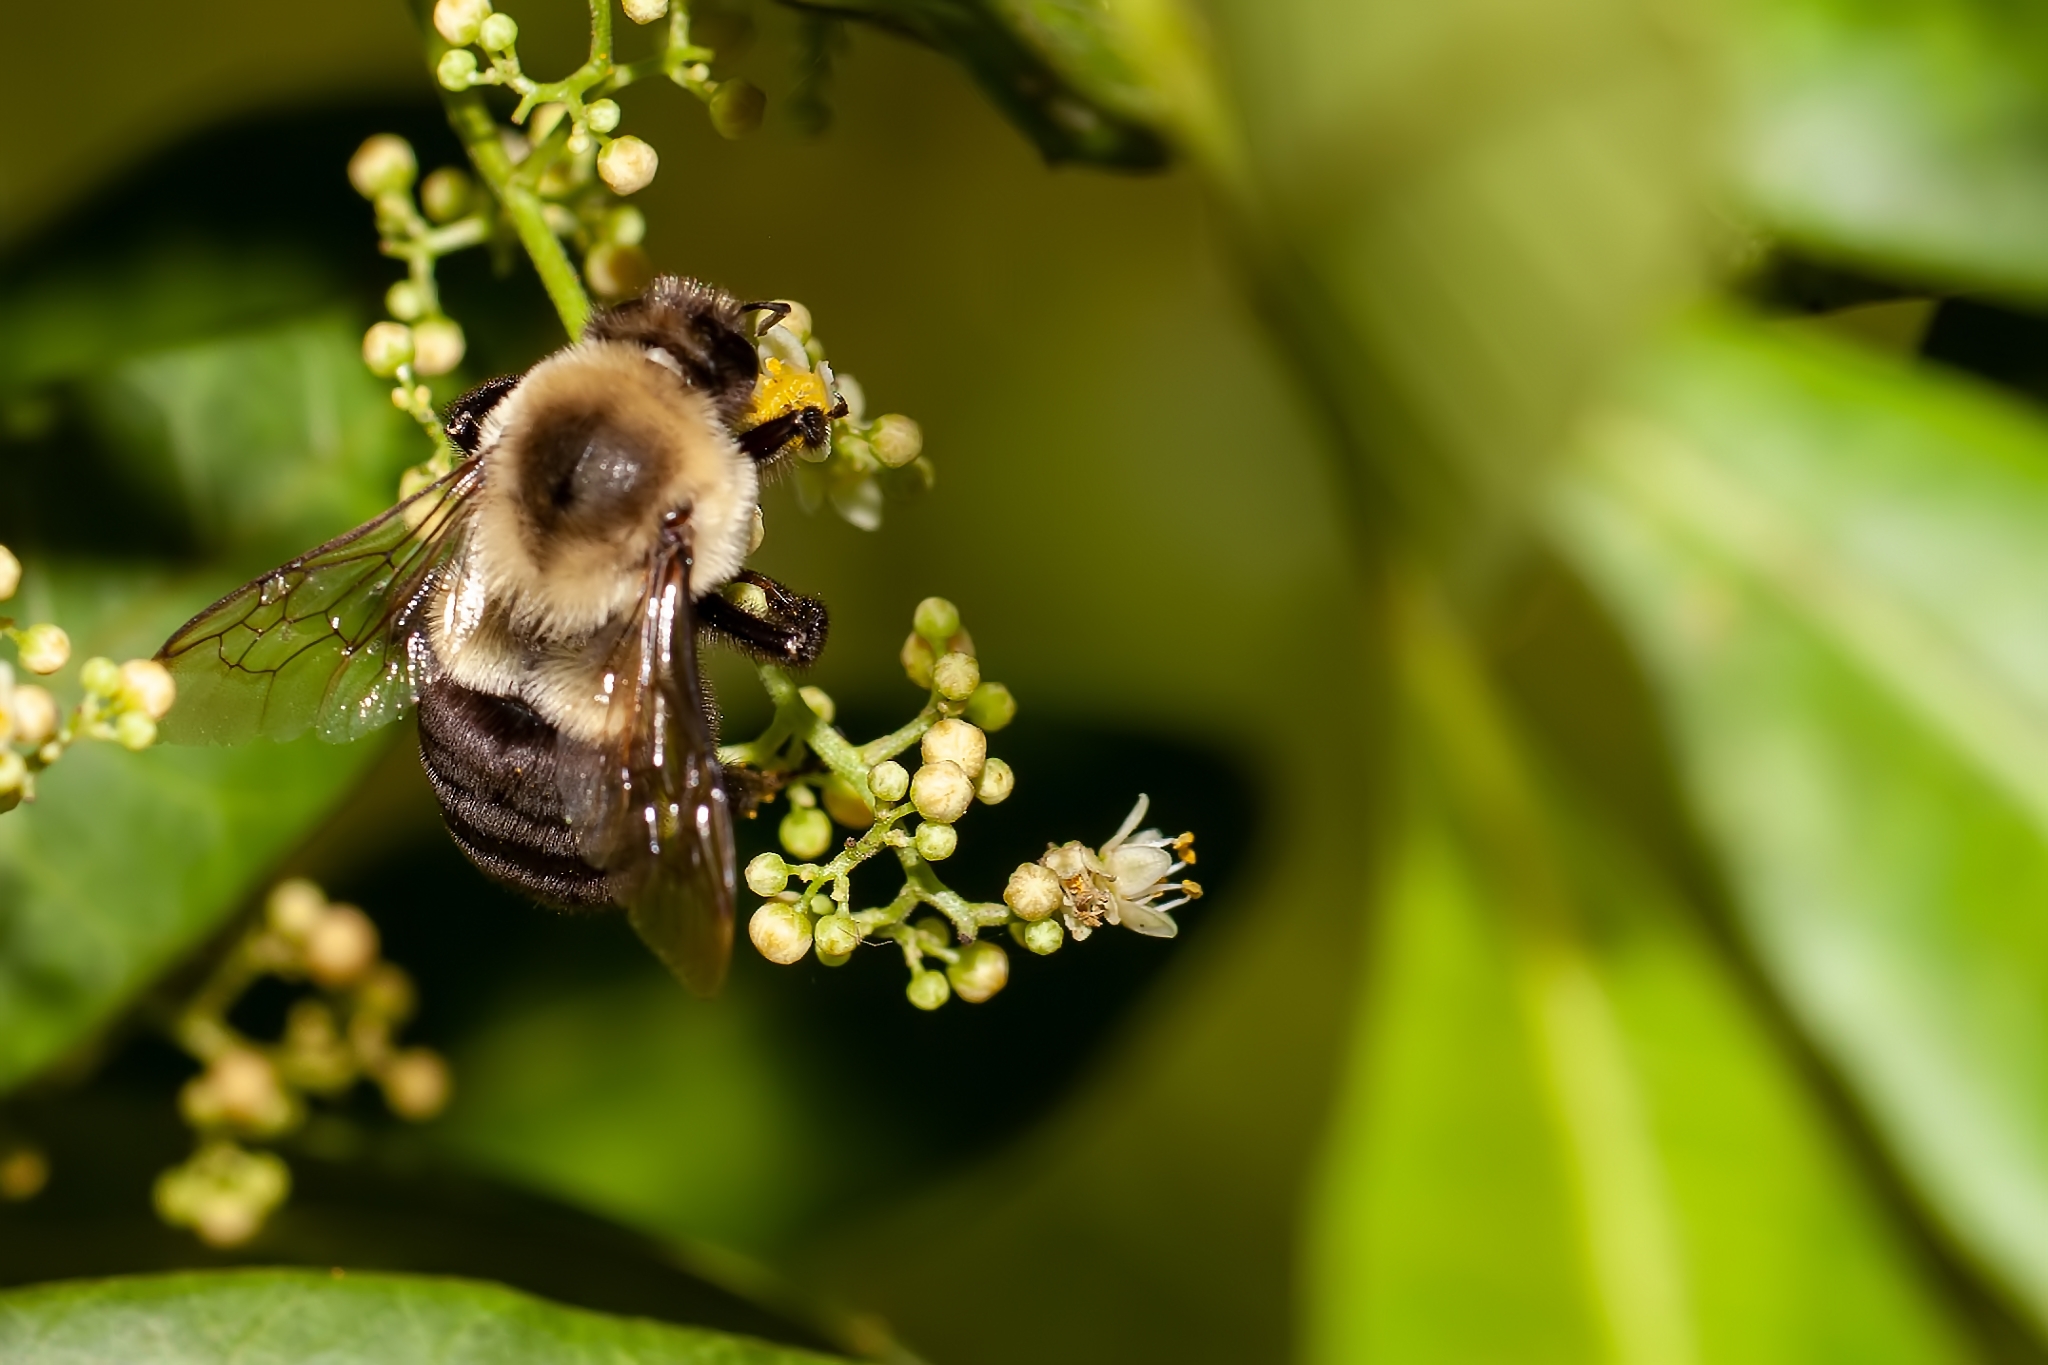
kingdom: Animalia
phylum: Arthropoda
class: Insecta
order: Hymenoptera
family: Apidae
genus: Bombus
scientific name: Bombus impatiens
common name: Common eastern bumble bee
